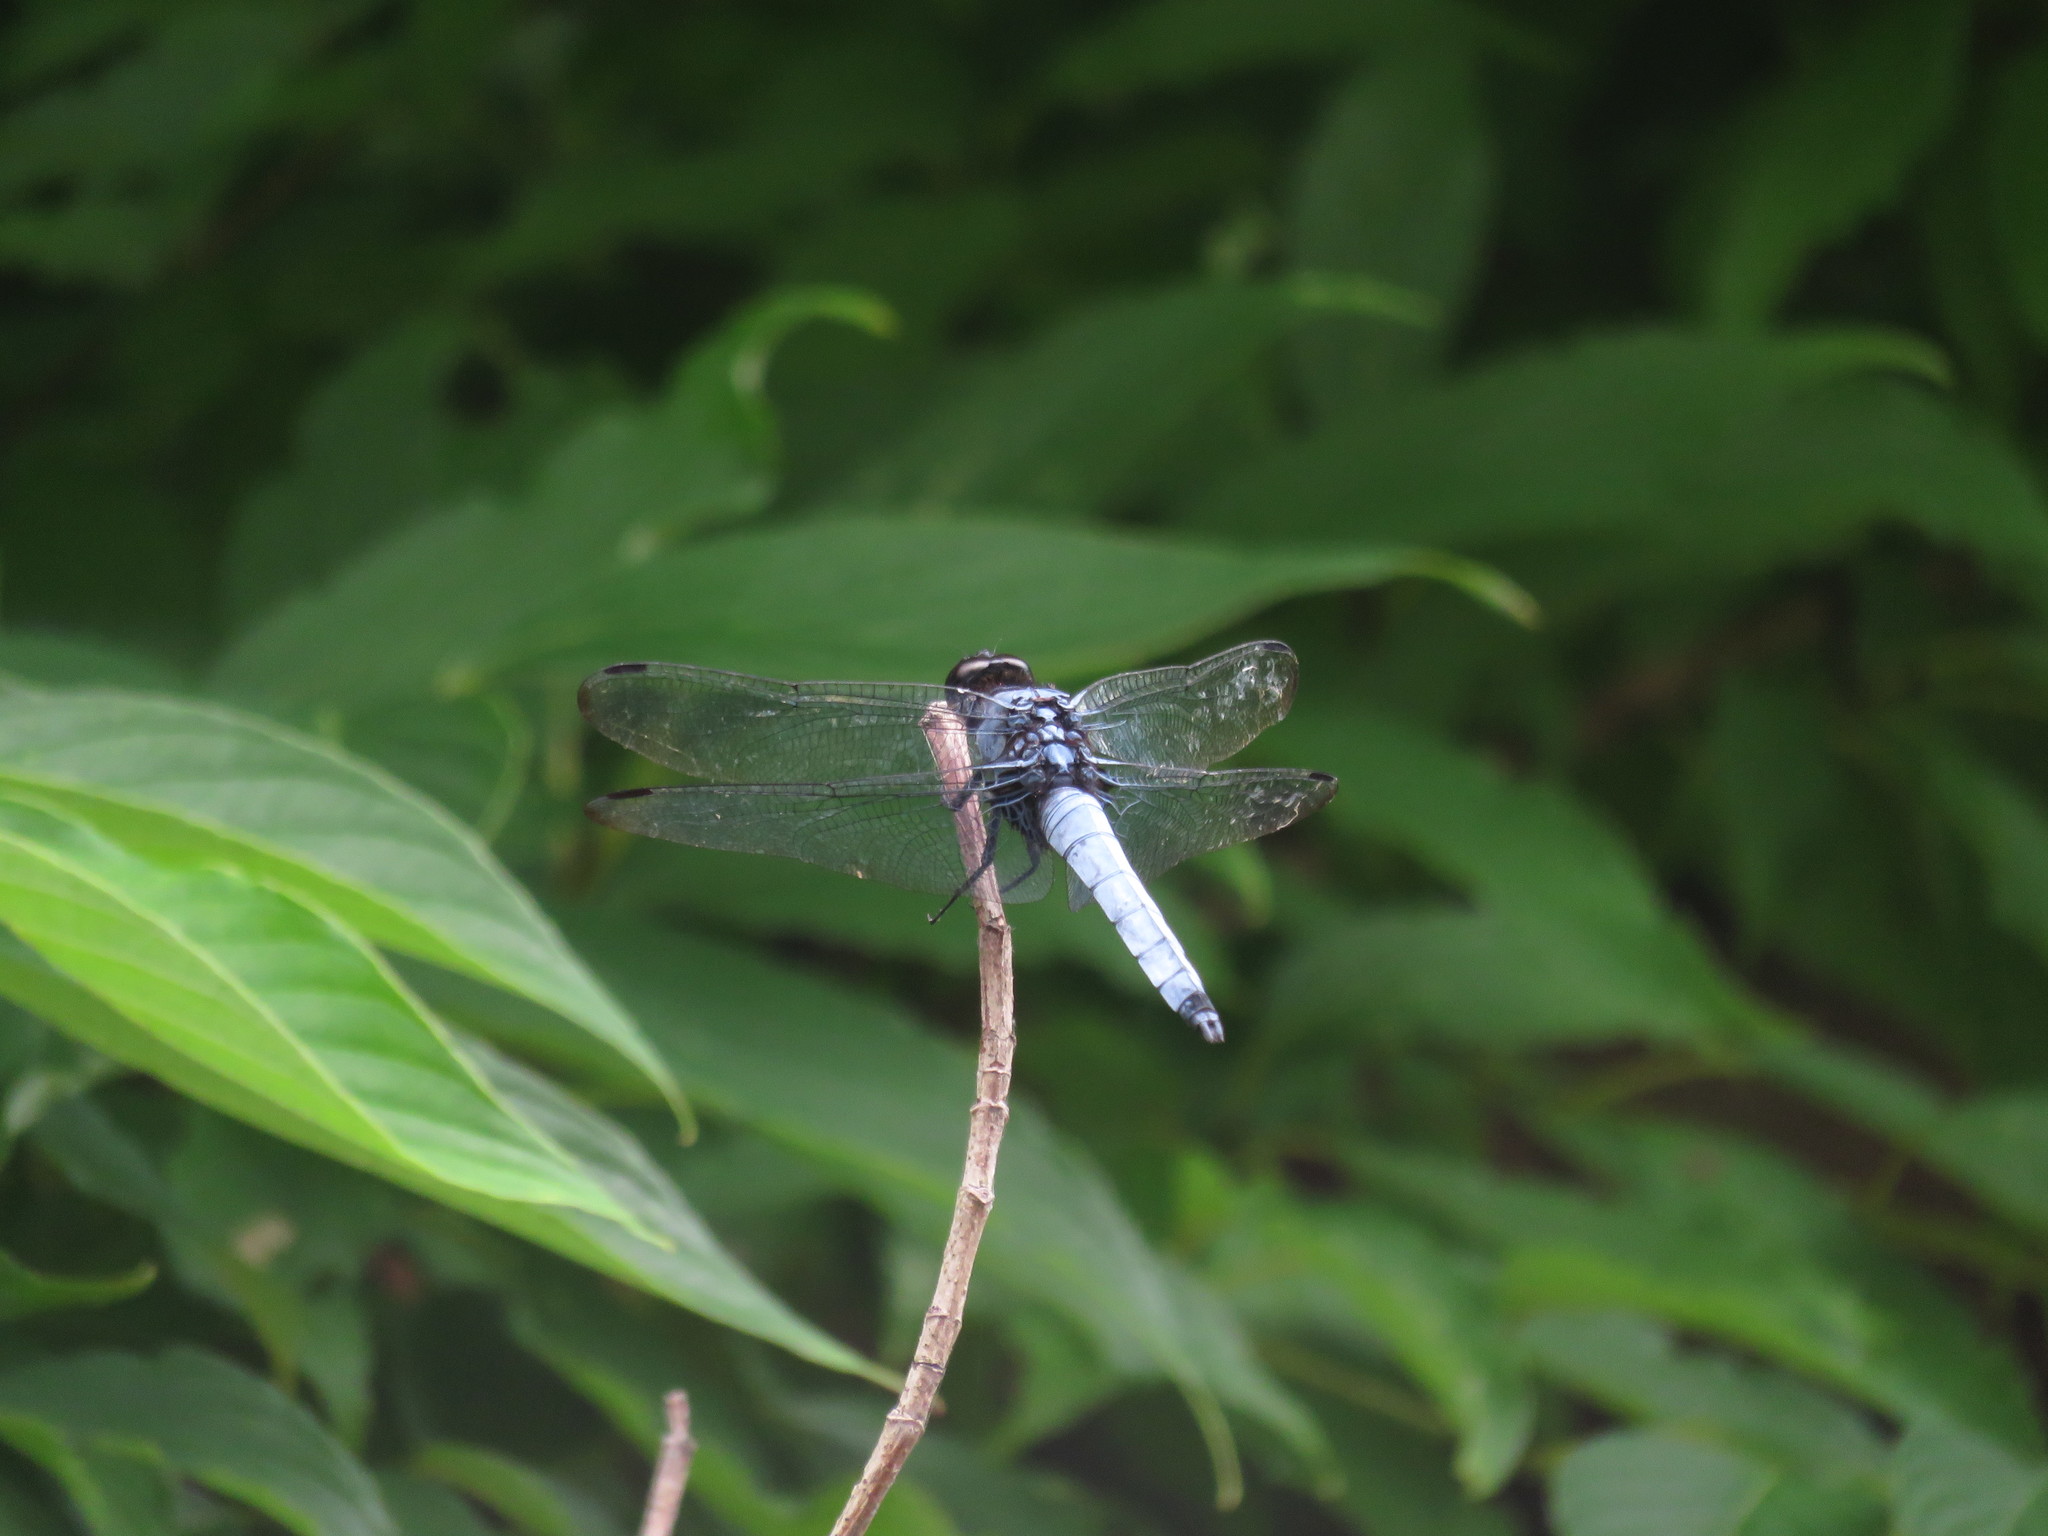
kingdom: Animalia
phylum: Arthropoda
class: Insecta
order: Odonata
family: Libellulidae
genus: Orthetrum
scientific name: Orthetrum melania
